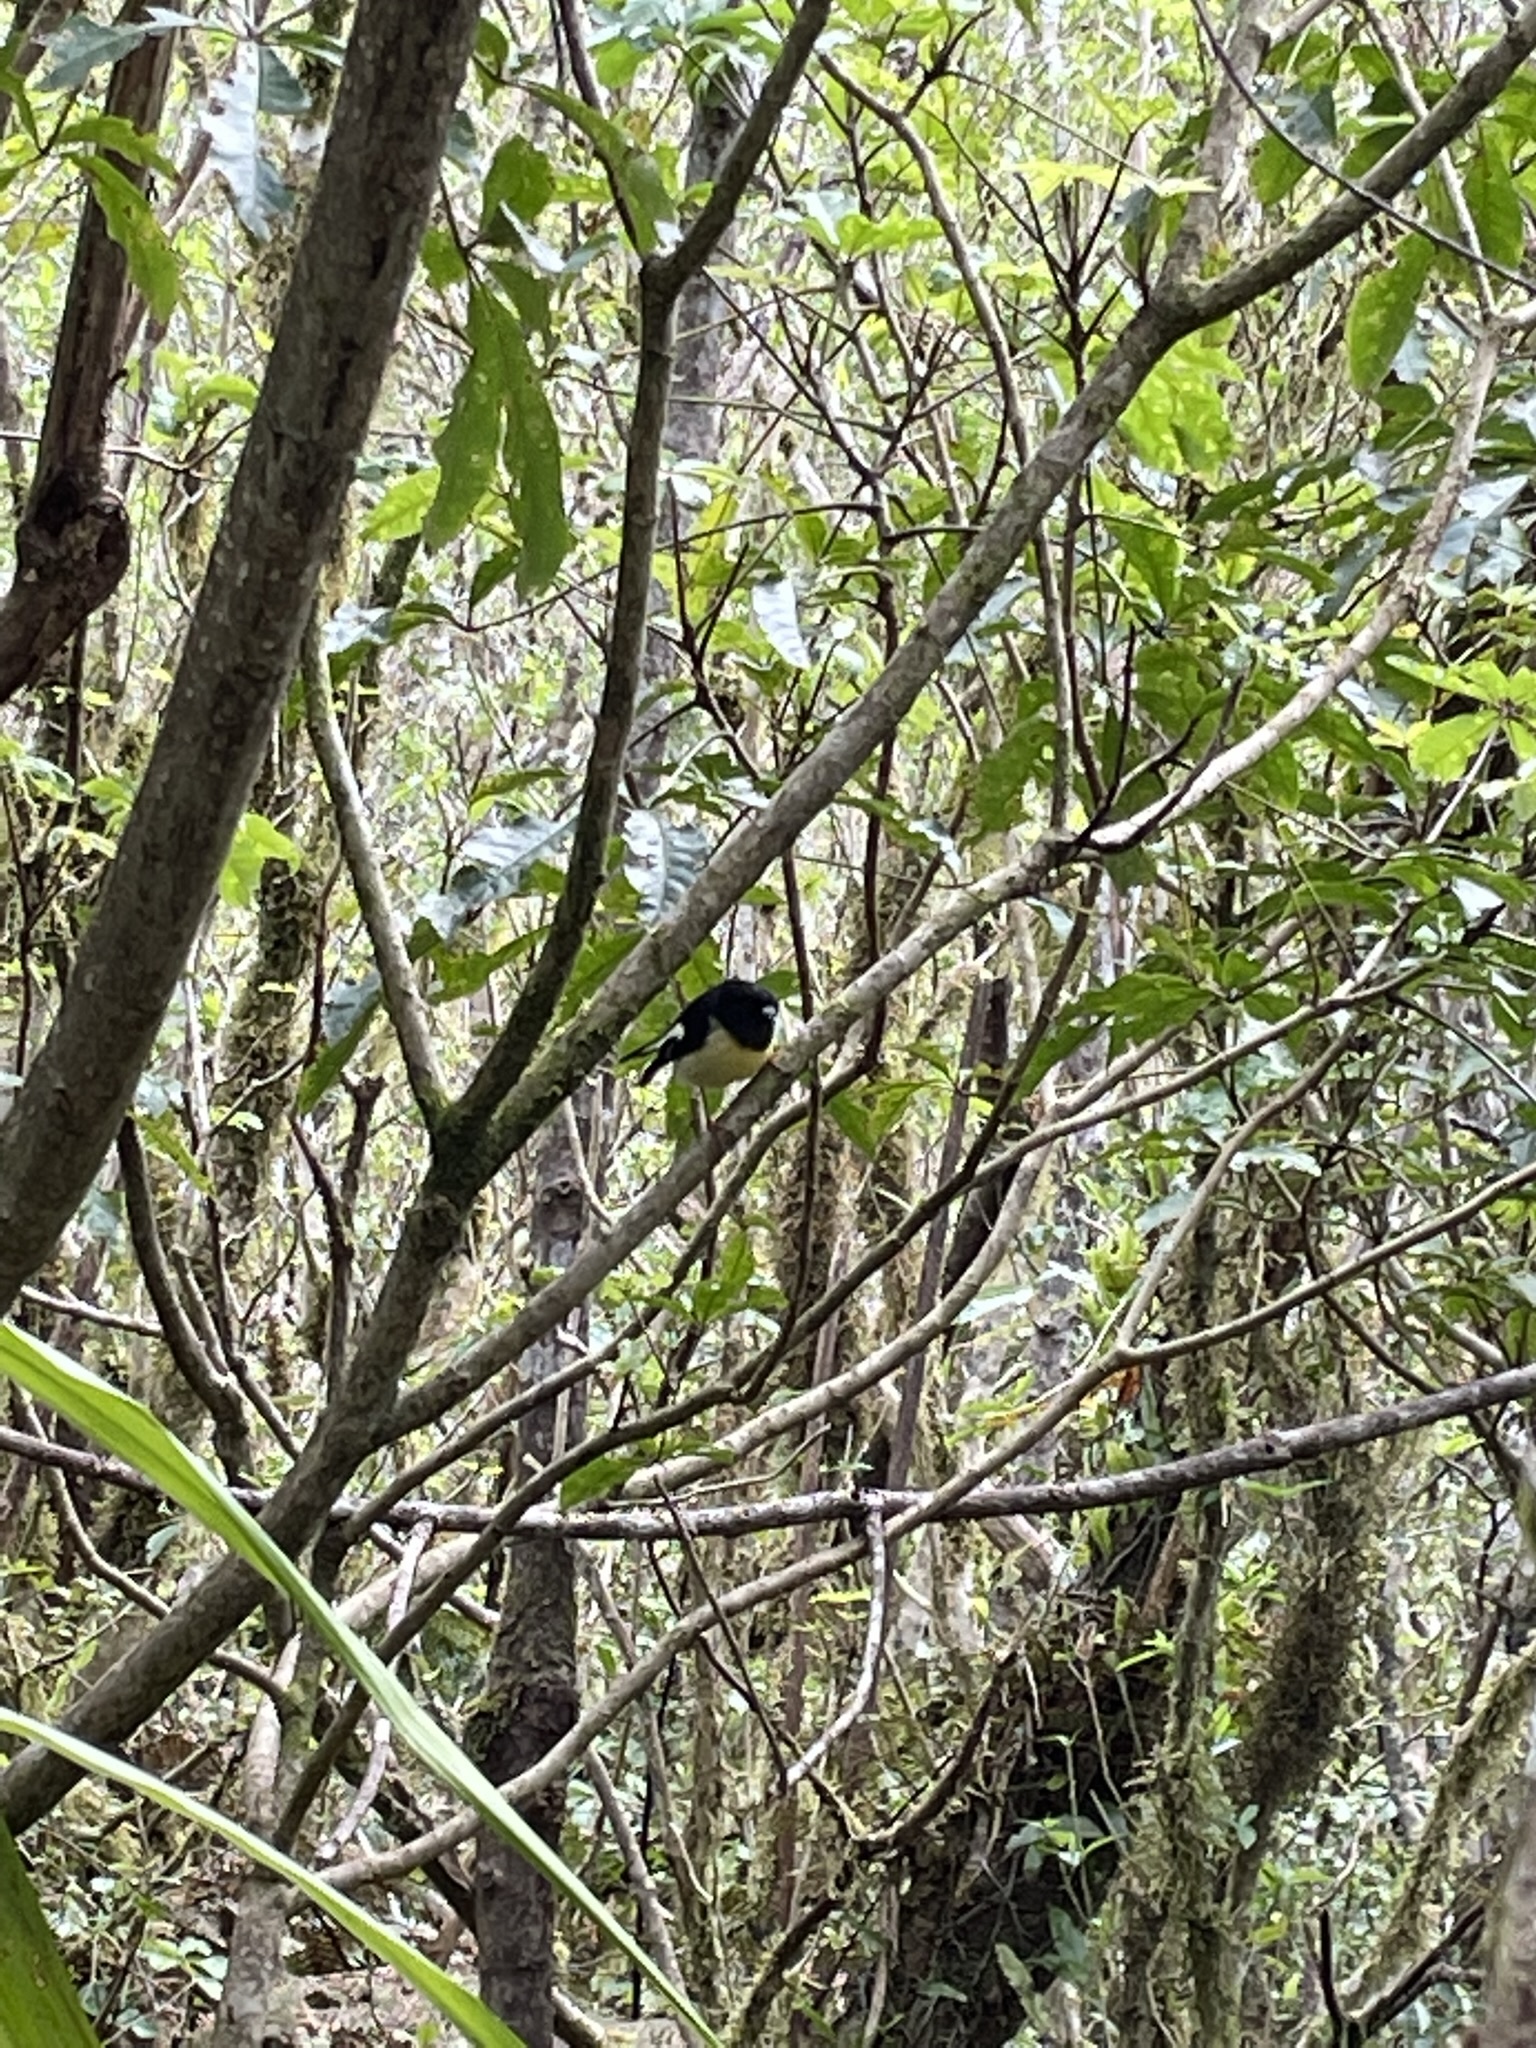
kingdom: Animalia
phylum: Chordata
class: Aves
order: Passeriformes
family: Petroicidae
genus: Petroica
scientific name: Petroica macrocephala
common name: Tomtit
